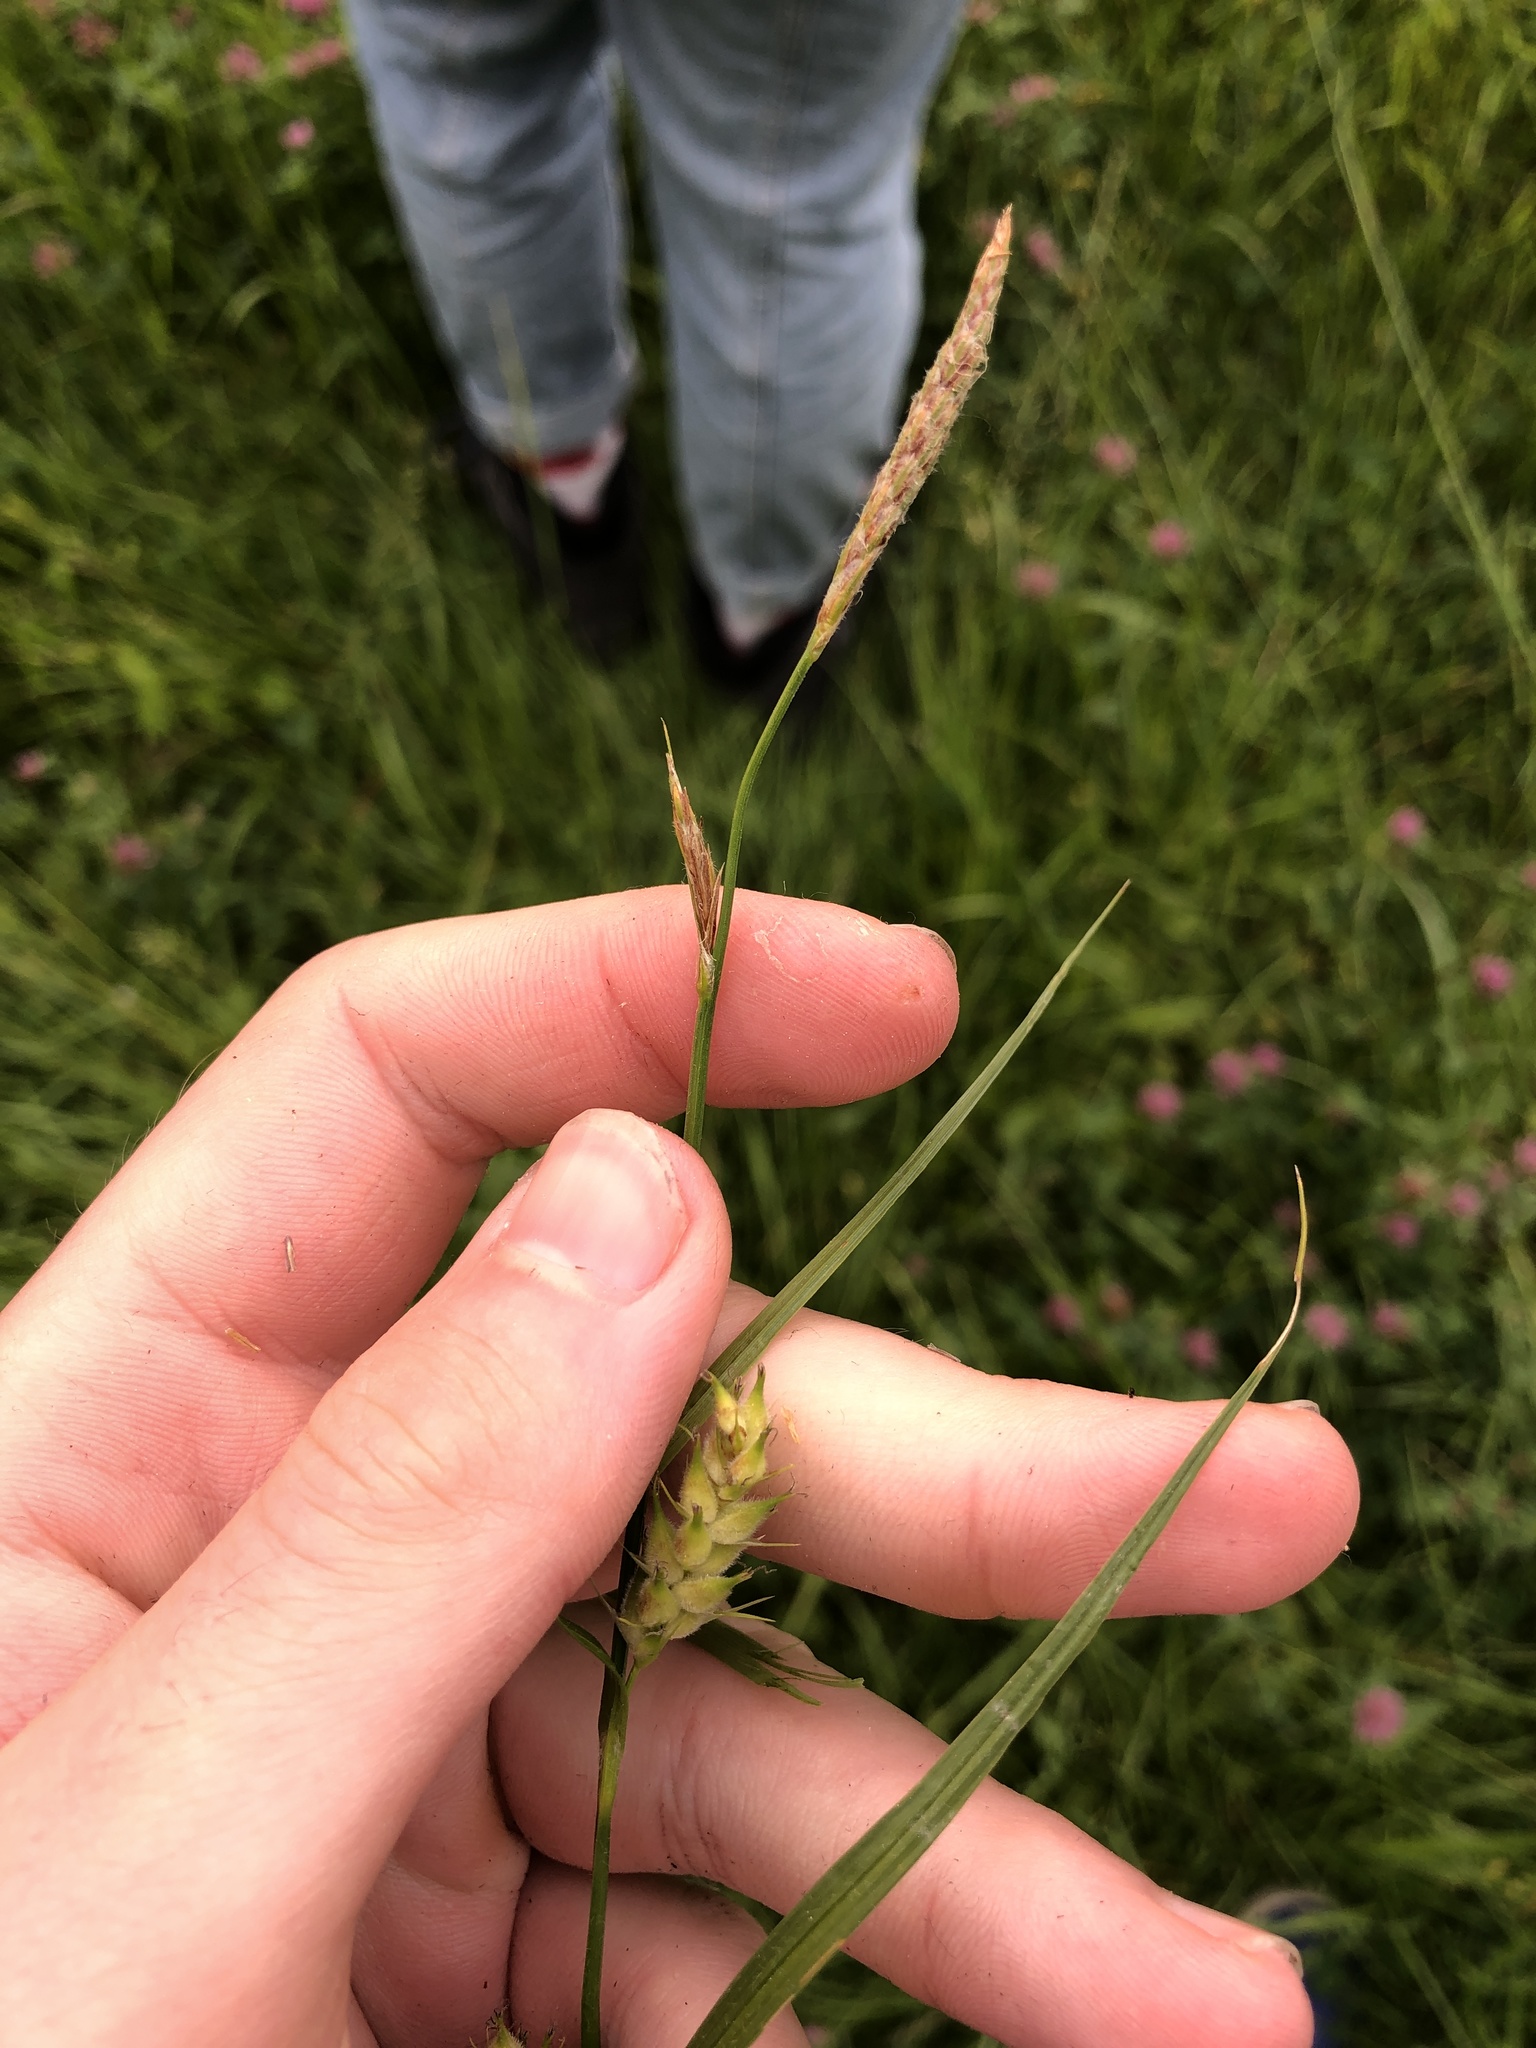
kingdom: Plantae
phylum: Tracheophyta
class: Liliopsida
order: Poales
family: Cyperaceae
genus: Carex
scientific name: Carex hirta
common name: Hairy sedge
